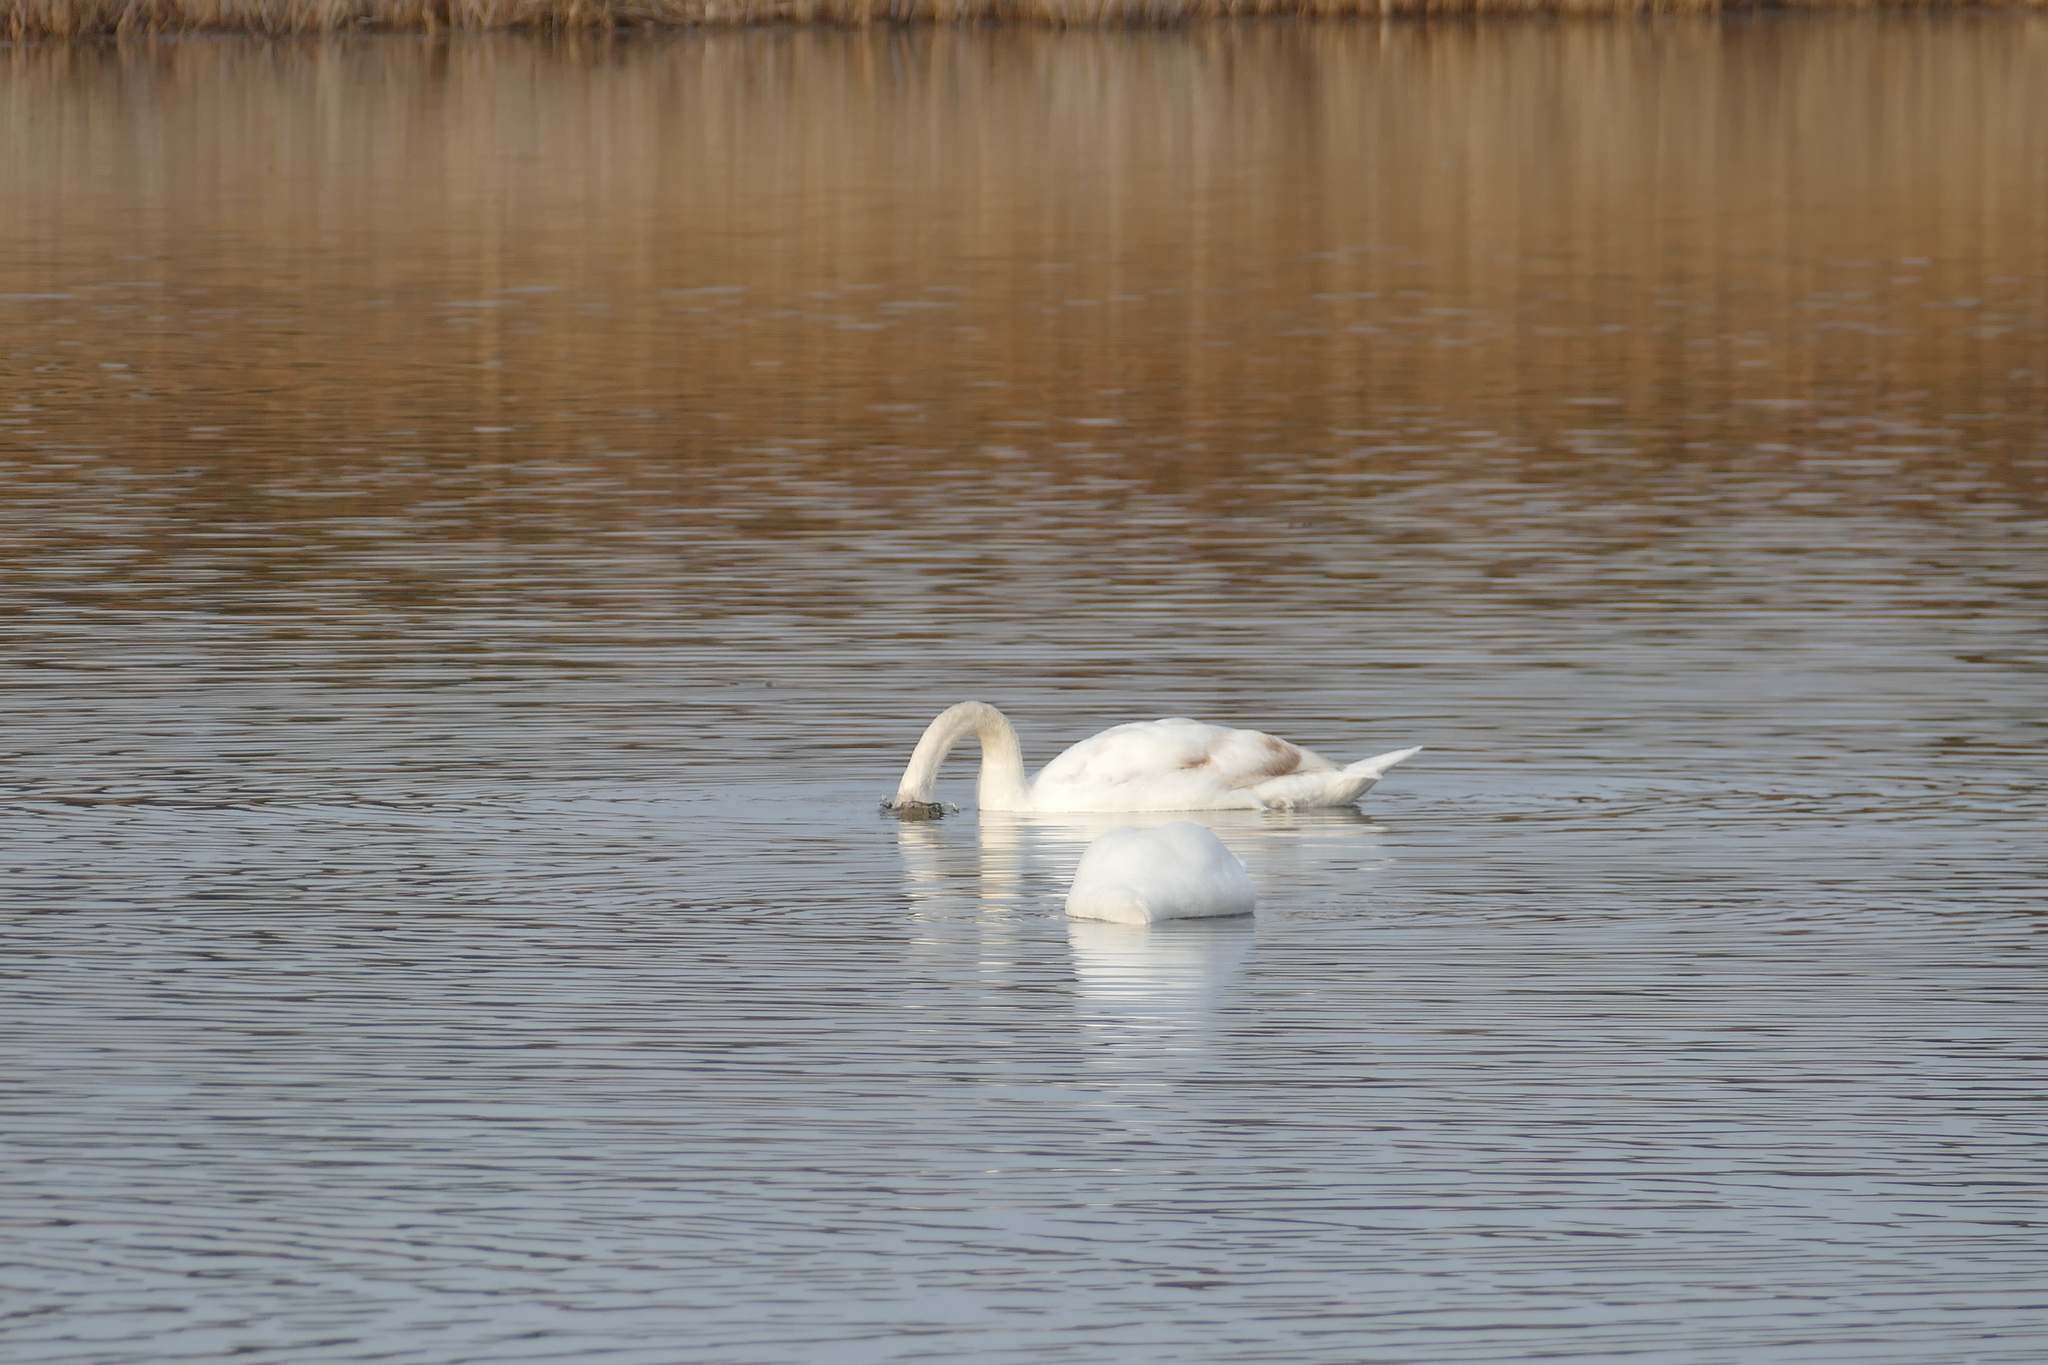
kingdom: Animalia
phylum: Chordata
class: Aves
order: Anseriformes
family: Anatidae
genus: Cygnus
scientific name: Cygnus columbianus
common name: Tundra swan
